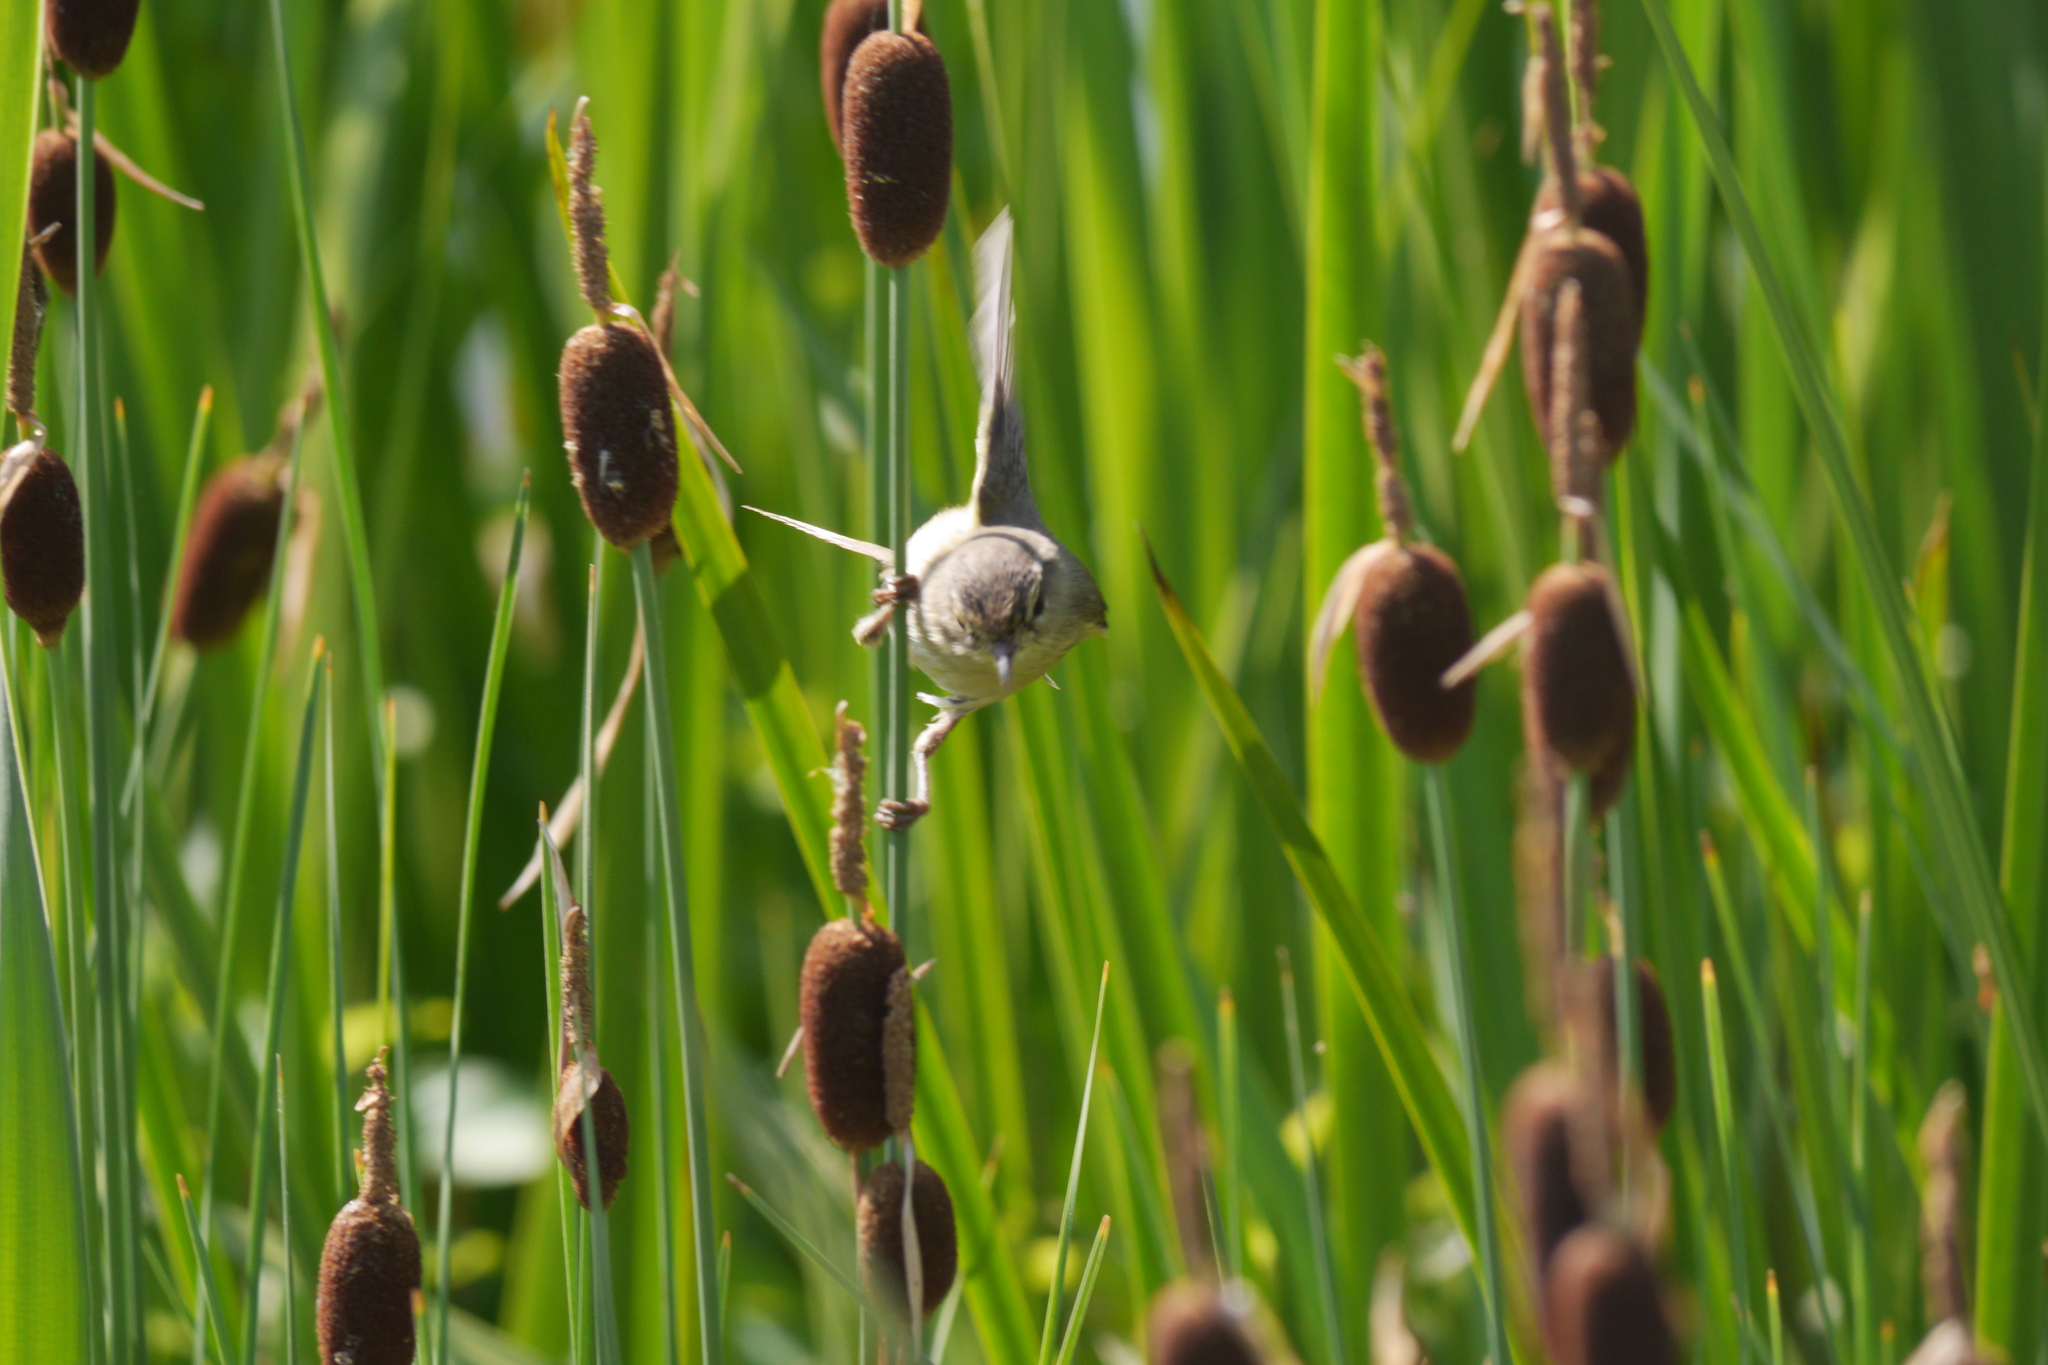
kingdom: Animalia
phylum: Chordata
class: Aves
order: Passeriformes
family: Acrocephalidae
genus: Acrocephalus
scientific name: Acrocephalus schoenobaenus
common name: Sedge warbler
